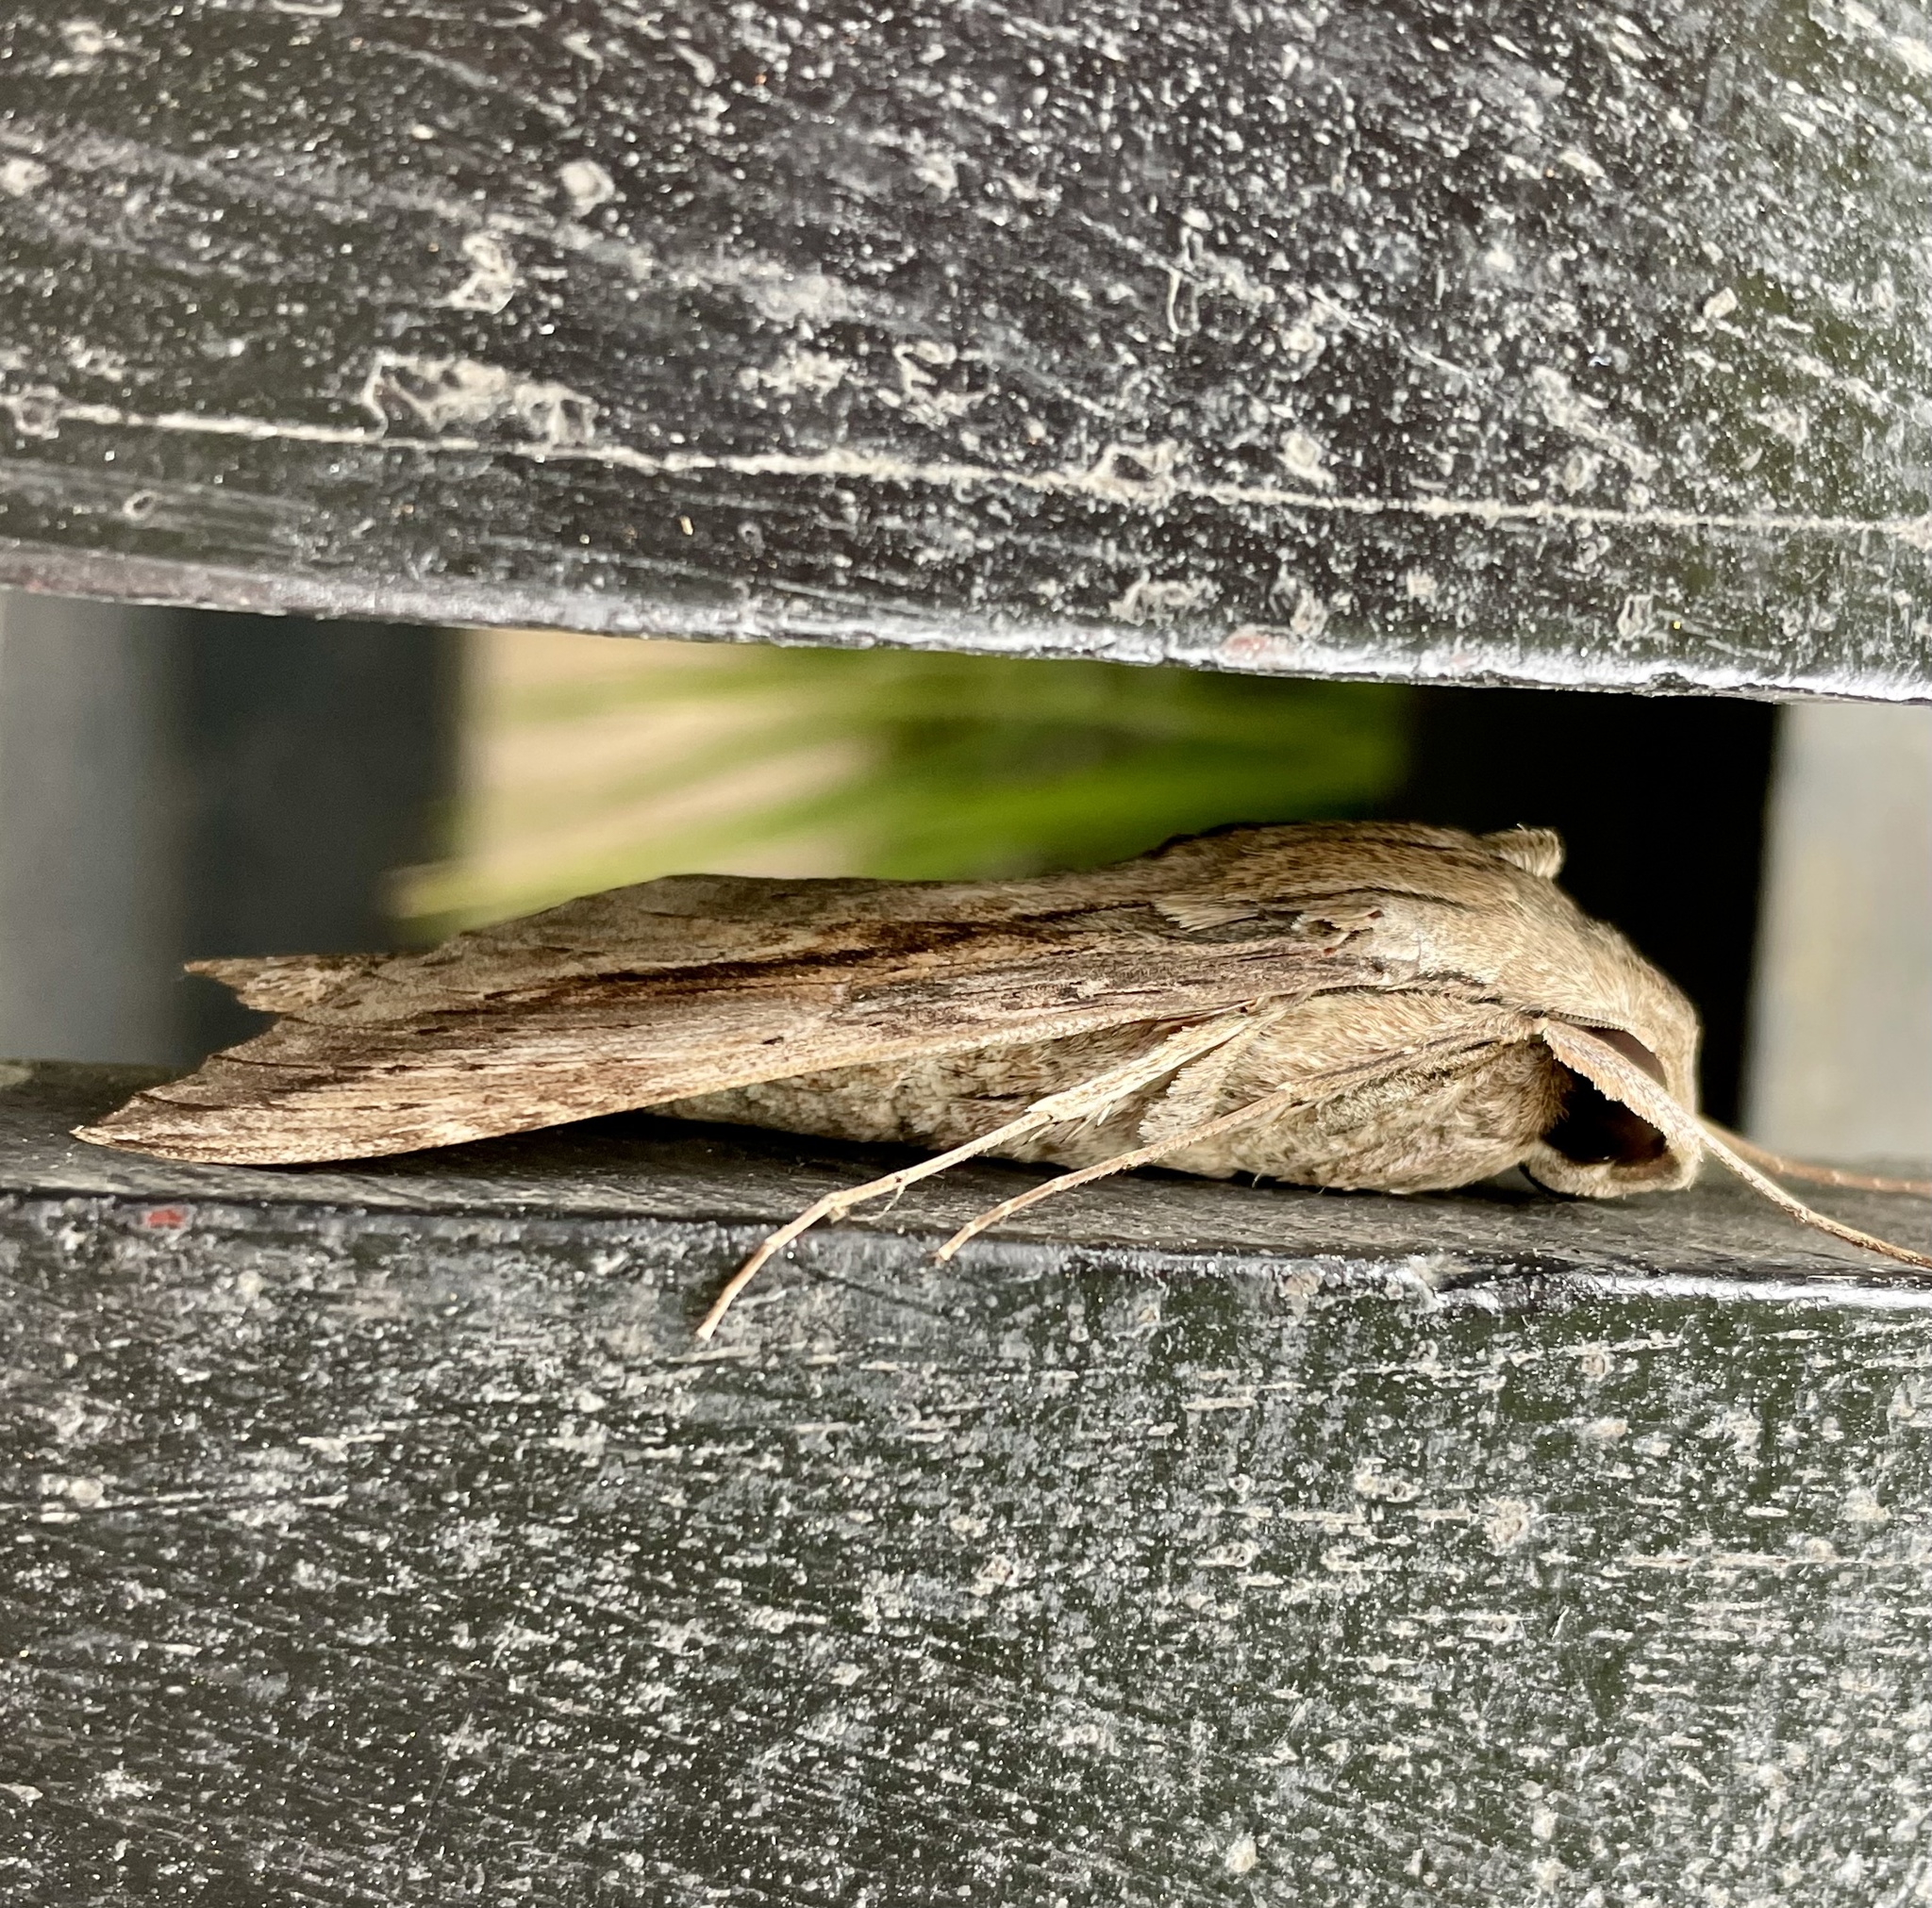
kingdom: Animalia
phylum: Arthropoda
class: Insecta
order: Lepidoptera
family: Sphingidae
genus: Erinnyis
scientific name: Erinnyis ello
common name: Ello sphinx
